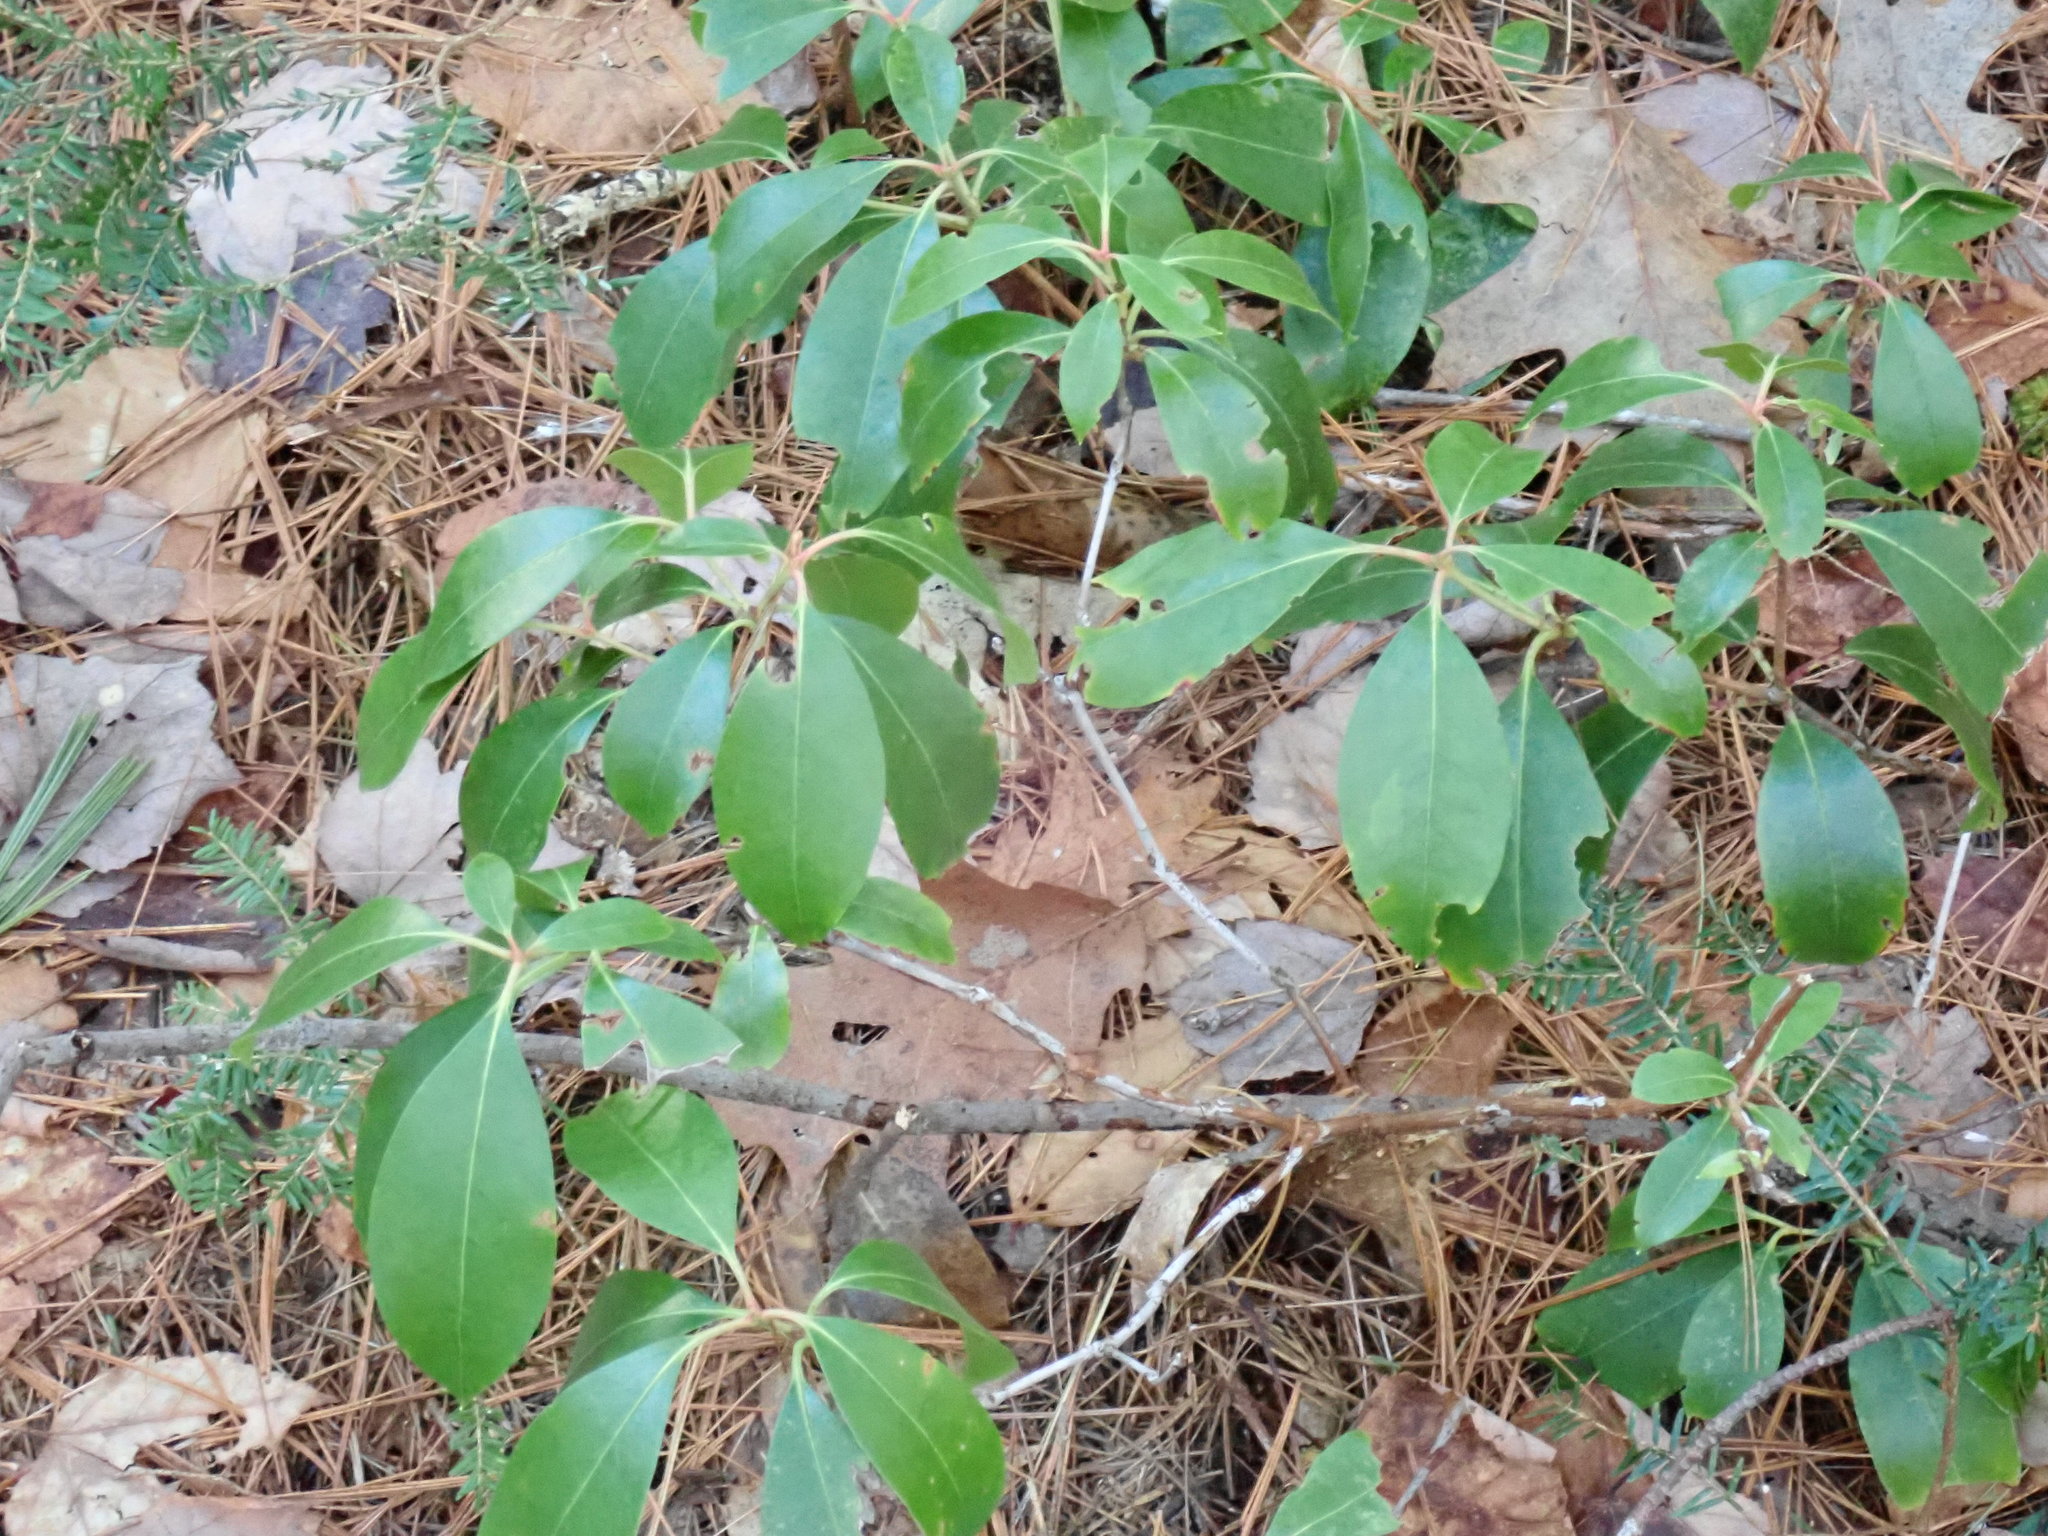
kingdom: Plantae
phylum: Tracheophyta
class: Magnoliopsida
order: Ericales
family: Ericaceae
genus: Kalmia
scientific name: Kalmia latifolia
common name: Mountain-laurel
